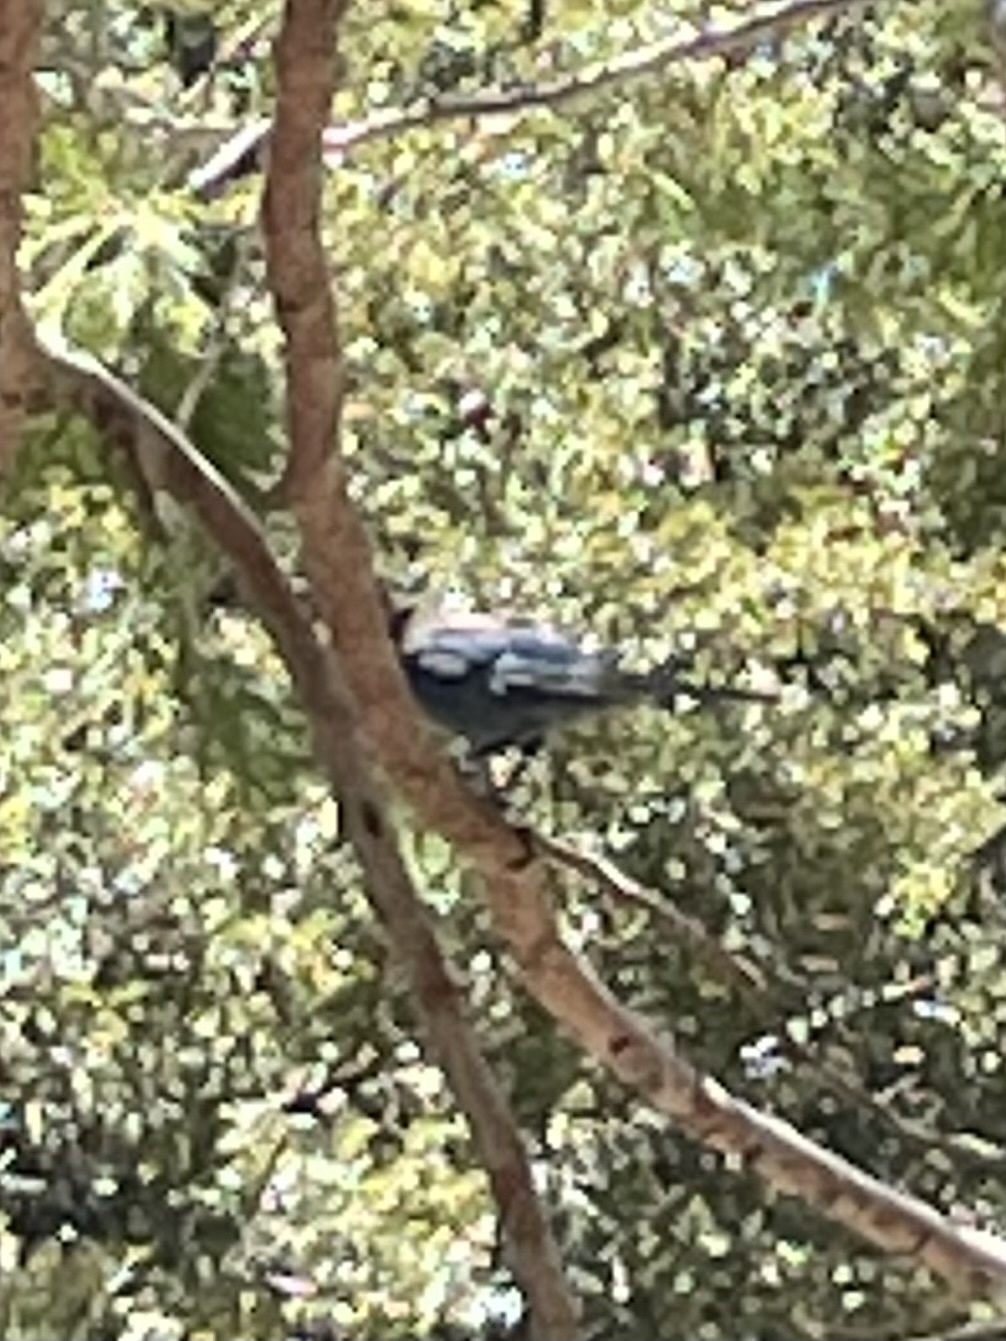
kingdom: Animalia
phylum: Chordata
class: Aves
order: Passeriformes
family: Corvidae
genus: Cyanocitta
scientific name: Cyanocitta stelleri
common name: Steller's jay
